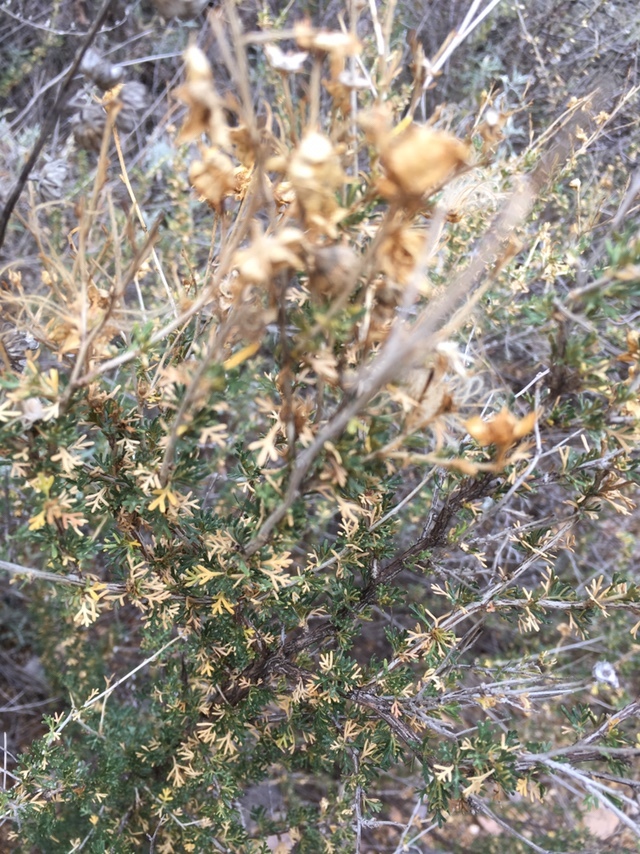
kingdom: Plantae
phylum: Tracheophyta
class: Magnoliopsida
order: Rosales
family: Rosaceae
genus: Fallugia
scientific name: Fallugia paradoxa
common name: Apache-plume
